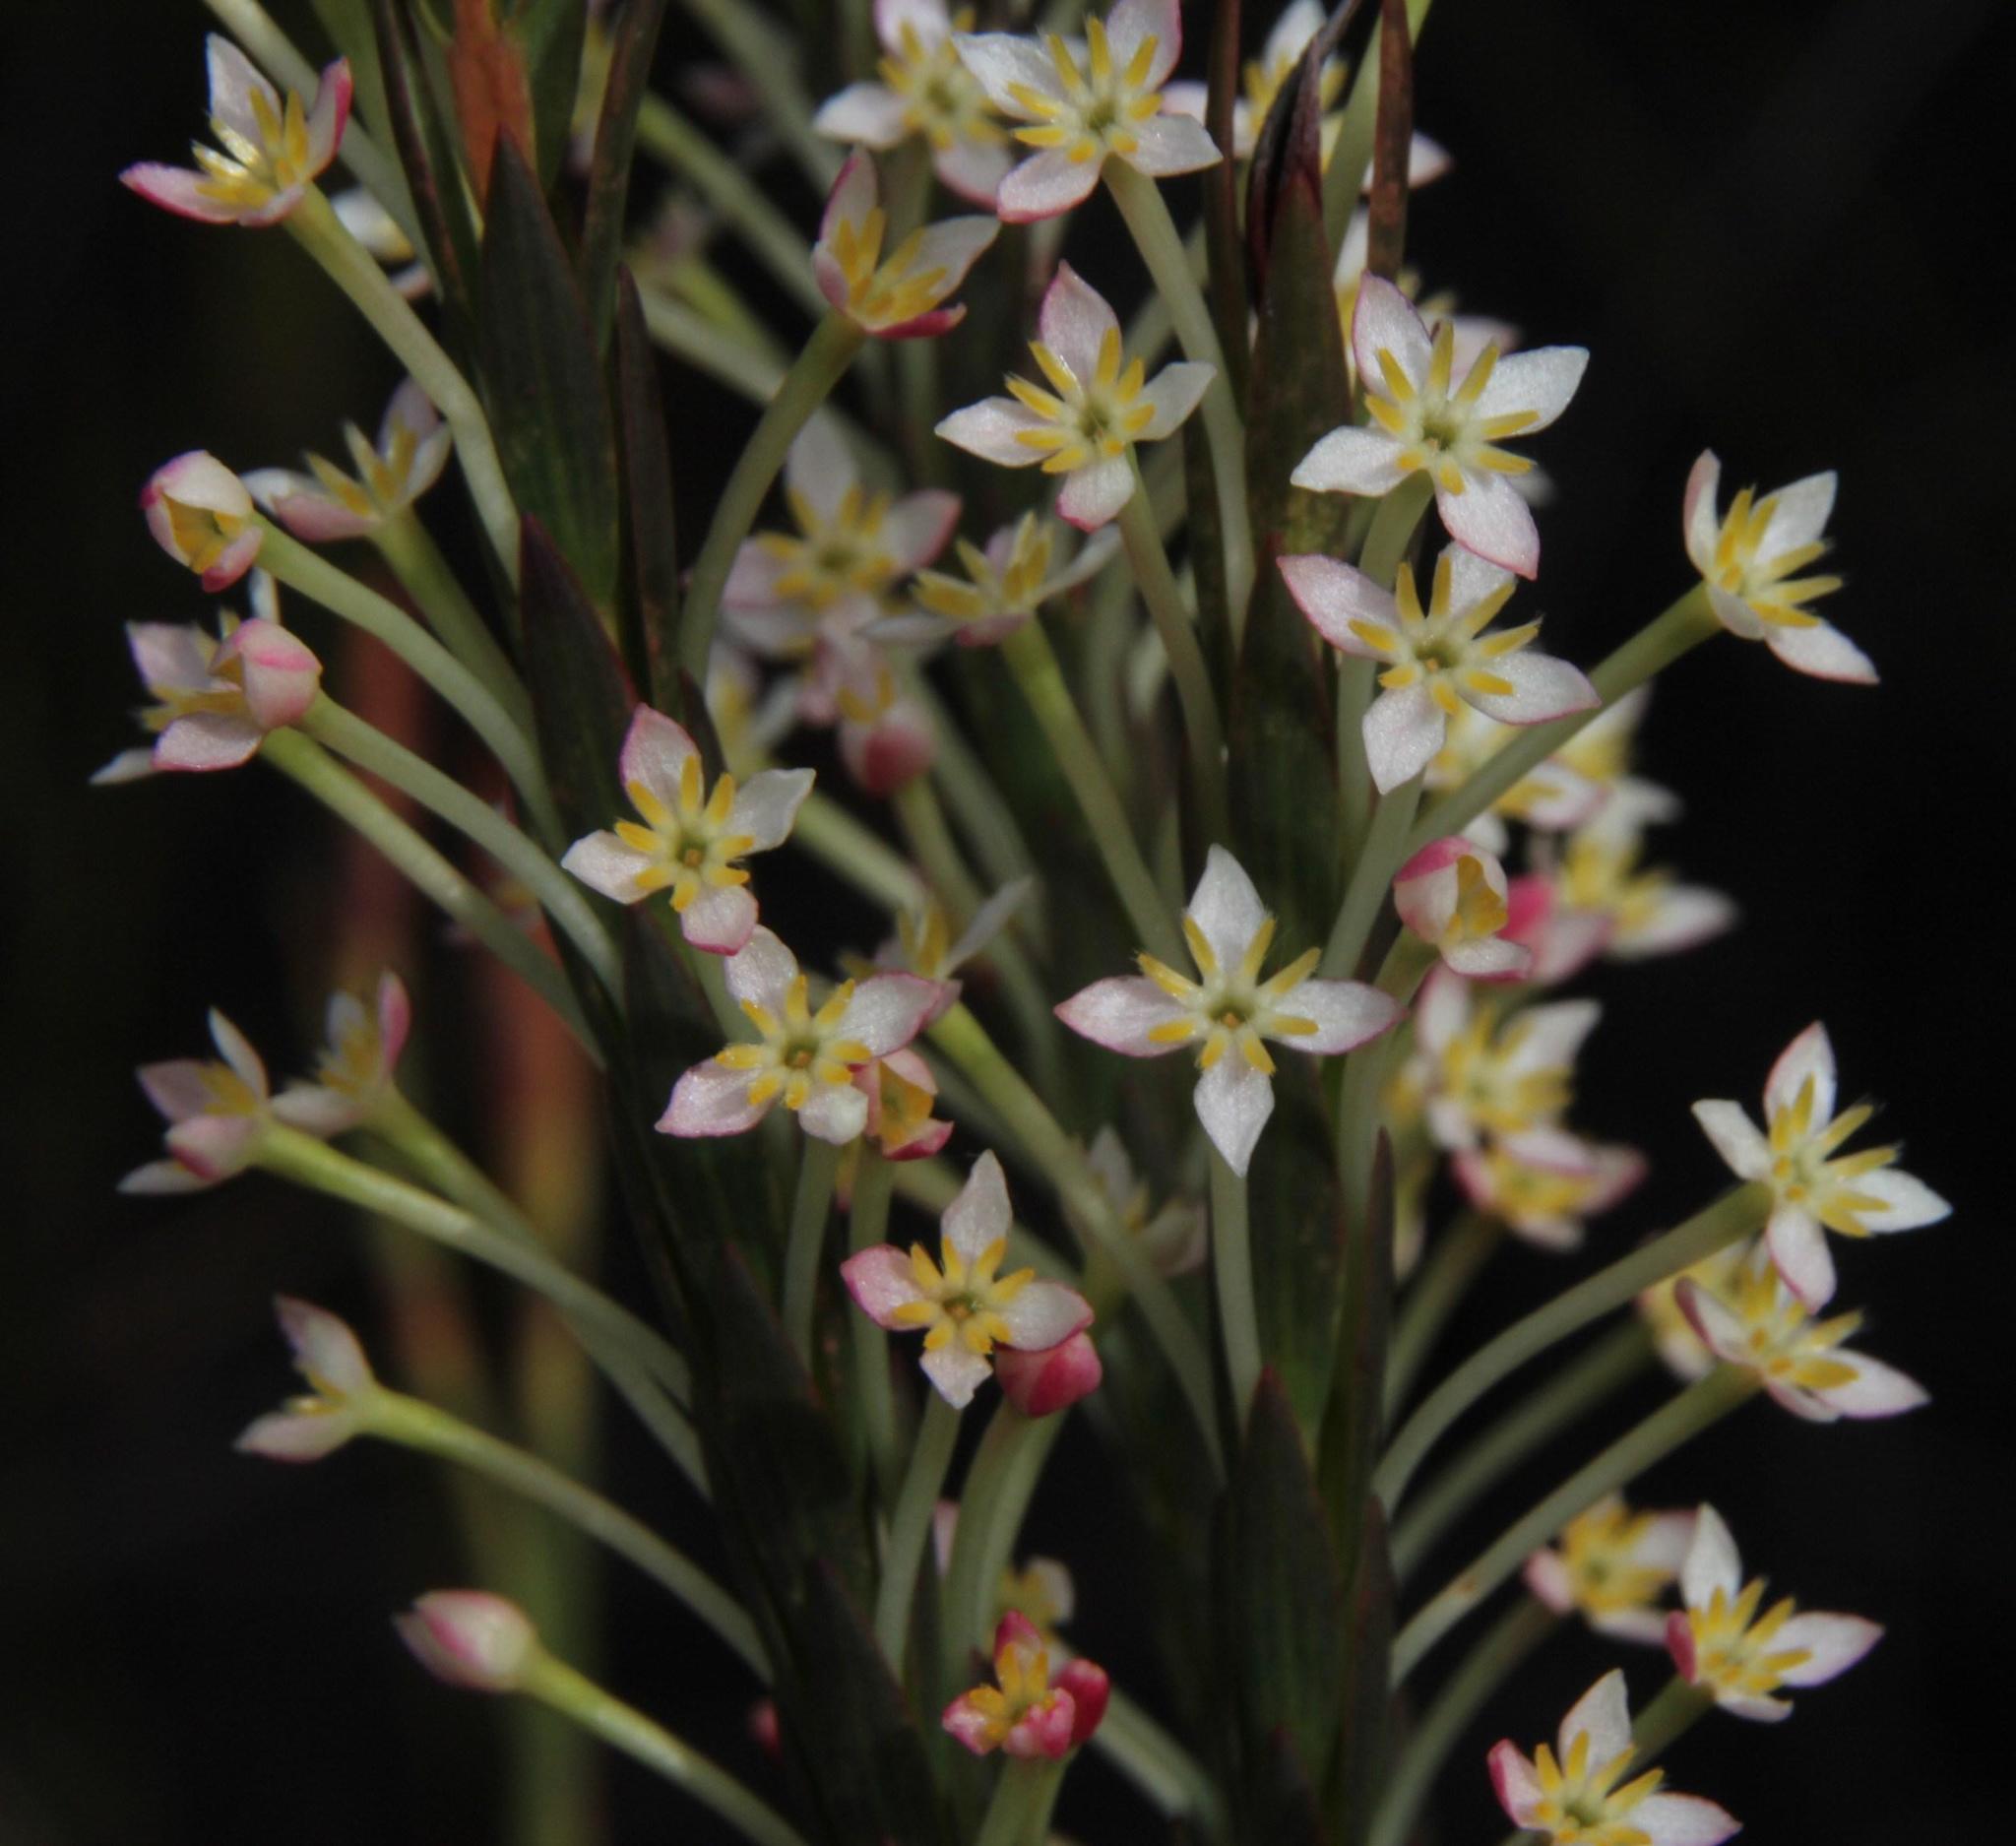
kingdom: Plantae
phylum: Tracheophyta
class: Magnoliopsida
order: Malvales
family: Thymelaeaceae
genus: Struthiola
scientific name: Struthiola ciliata
